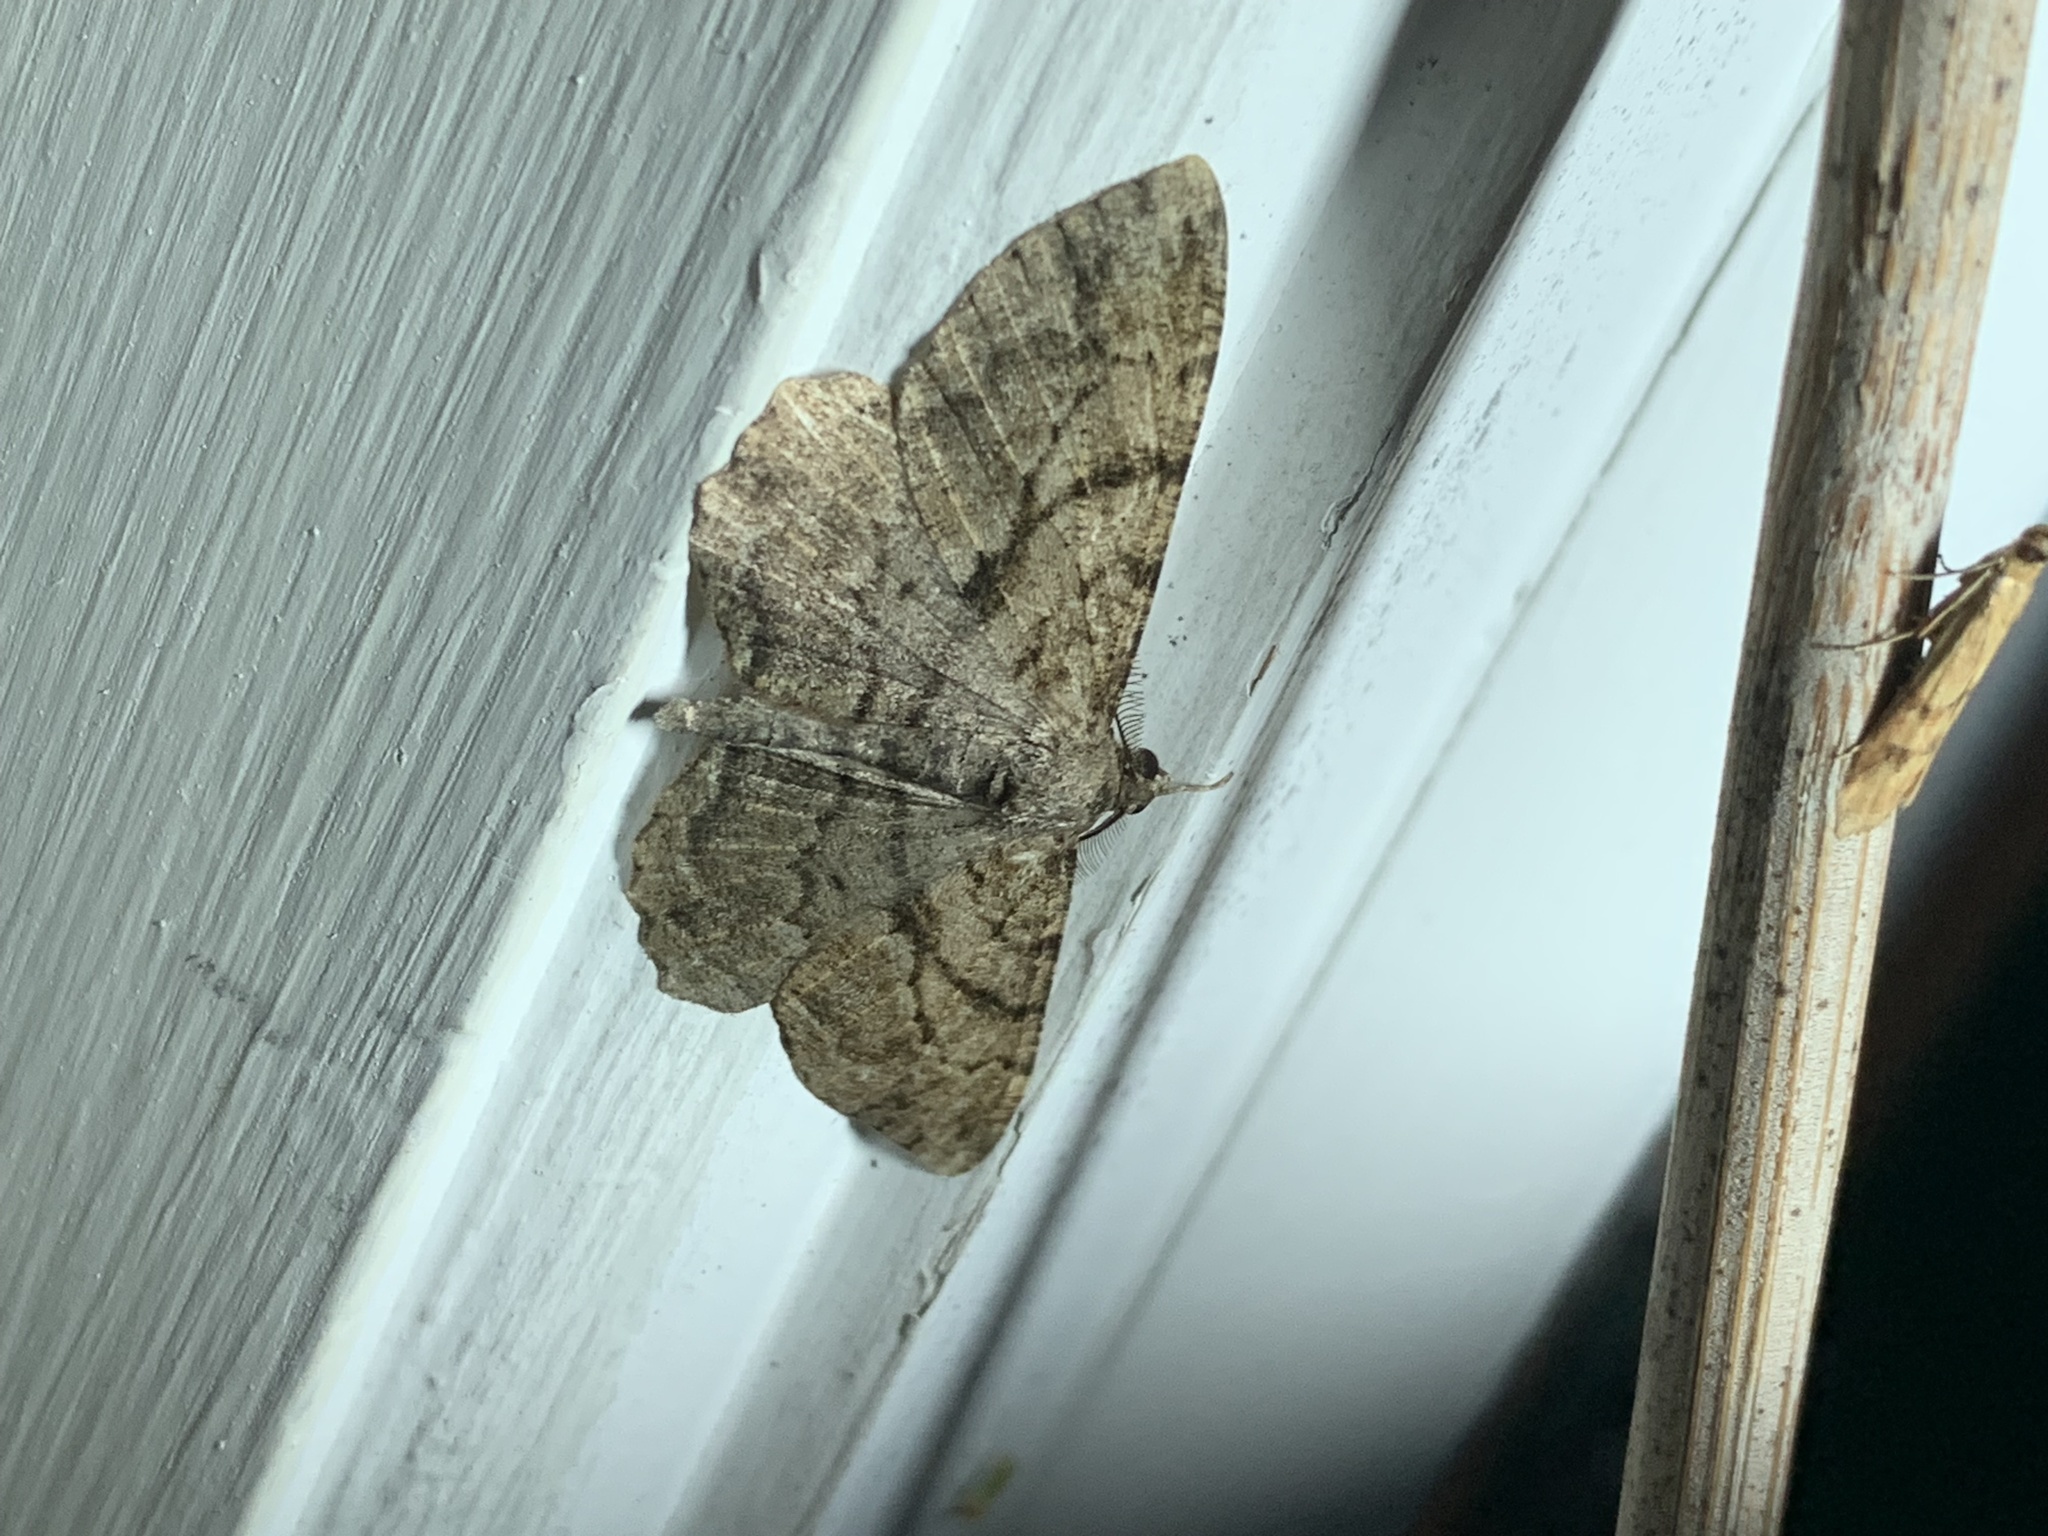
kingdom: Animalia
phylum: Arthropoda
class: Insecta
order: Lepidoptera
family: Geometridae
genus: Peribatodes
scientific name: Peribatodes rhomboidaria
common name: Willow beauty
